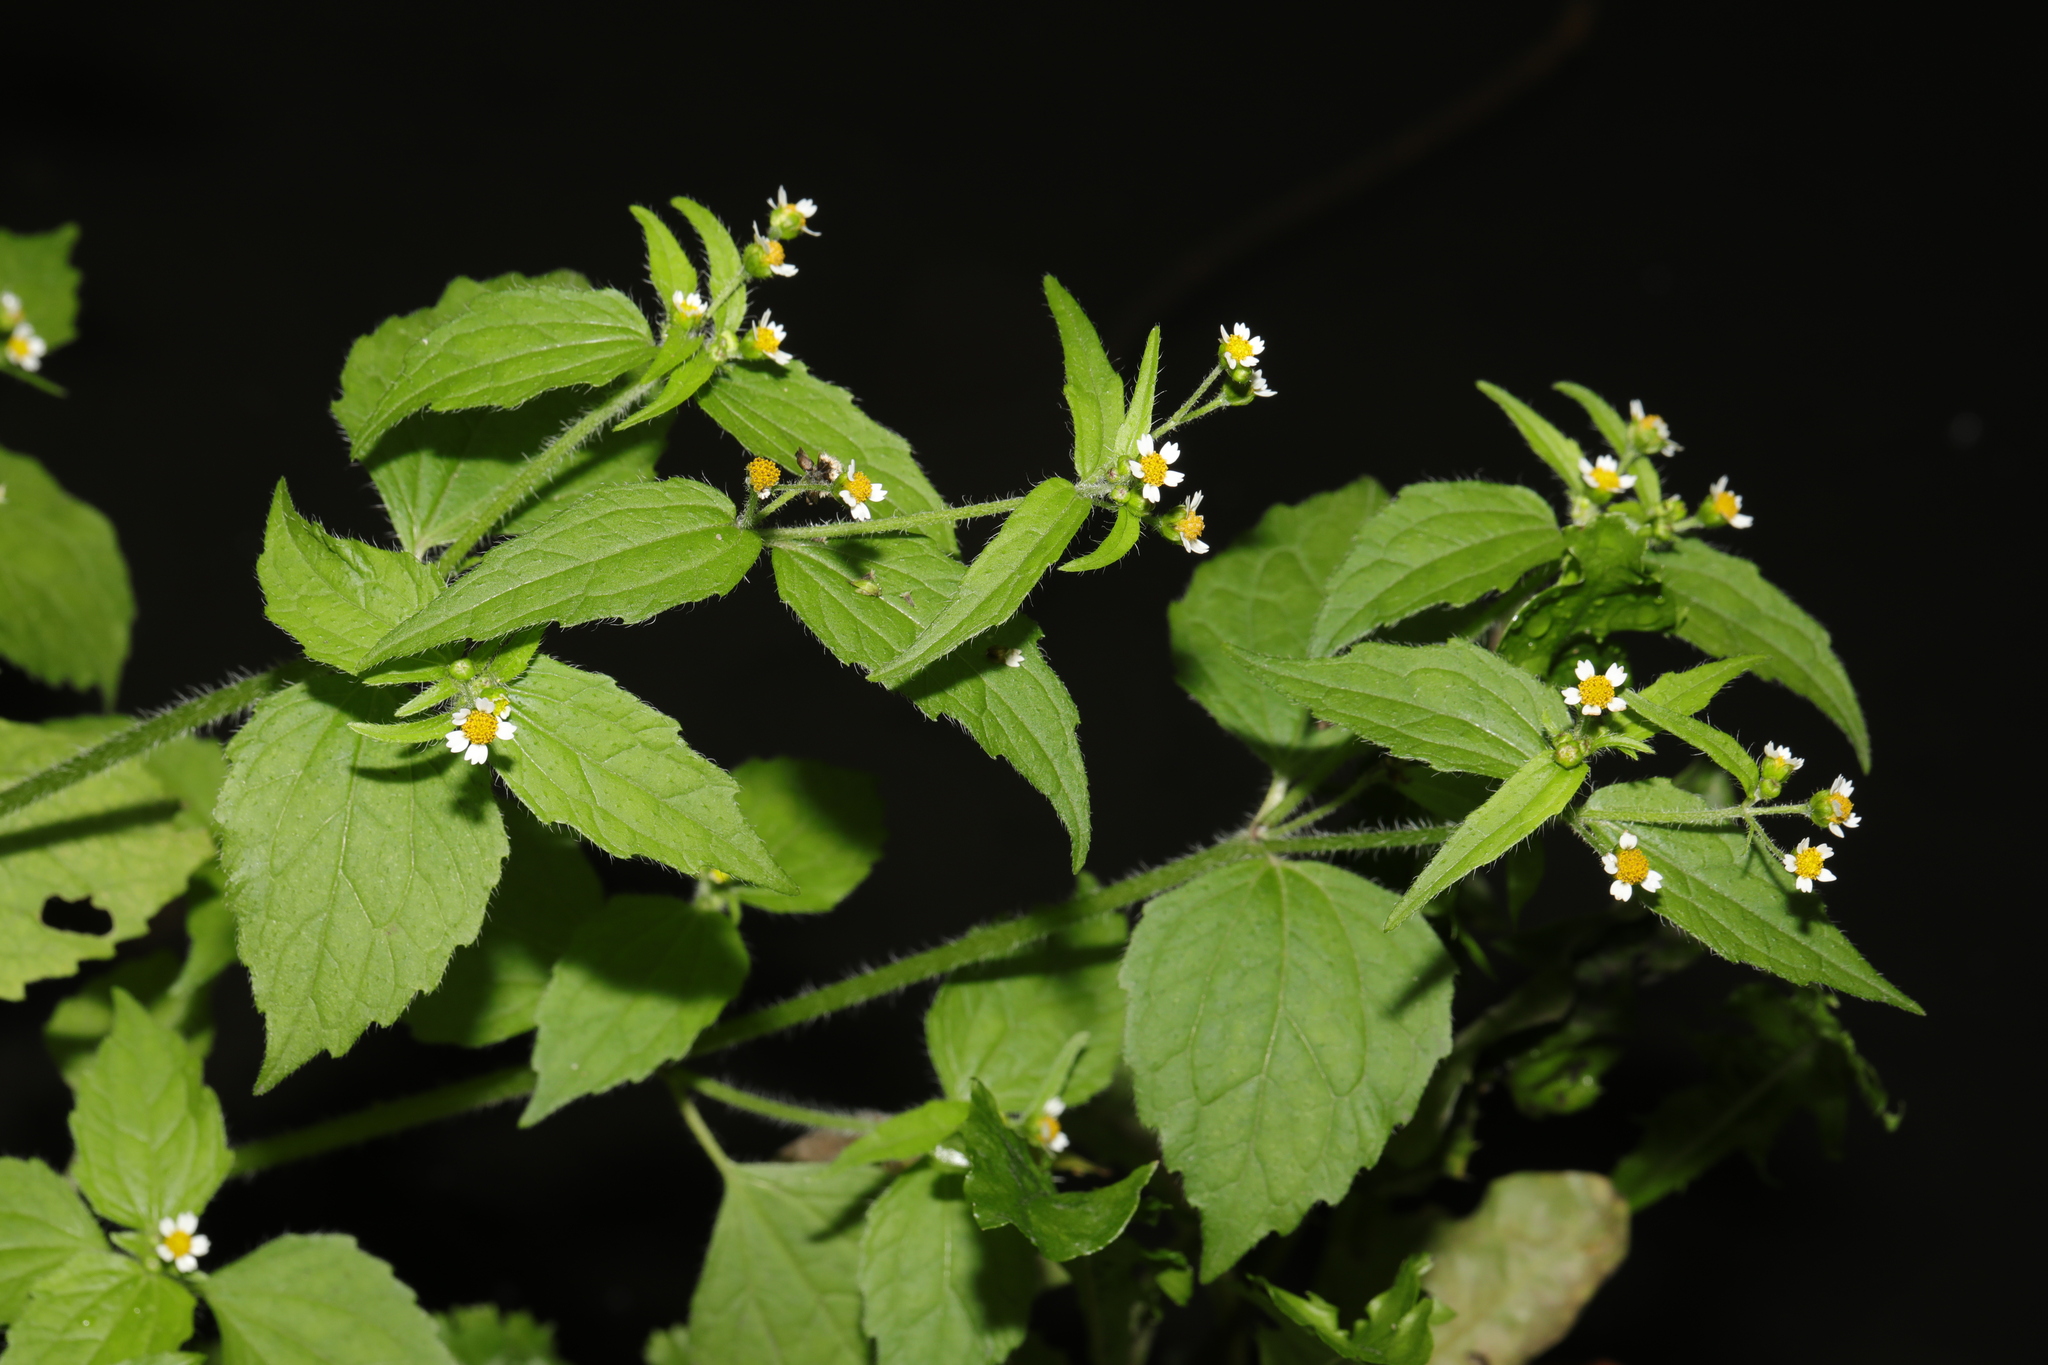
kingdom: Plantae
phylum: Tracheophyta
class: Magnoliopsida
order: Asterales
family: Asteraceae
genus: Galinsoga
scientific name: Galinsoga quadriradiata
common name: Shaggy soldier
